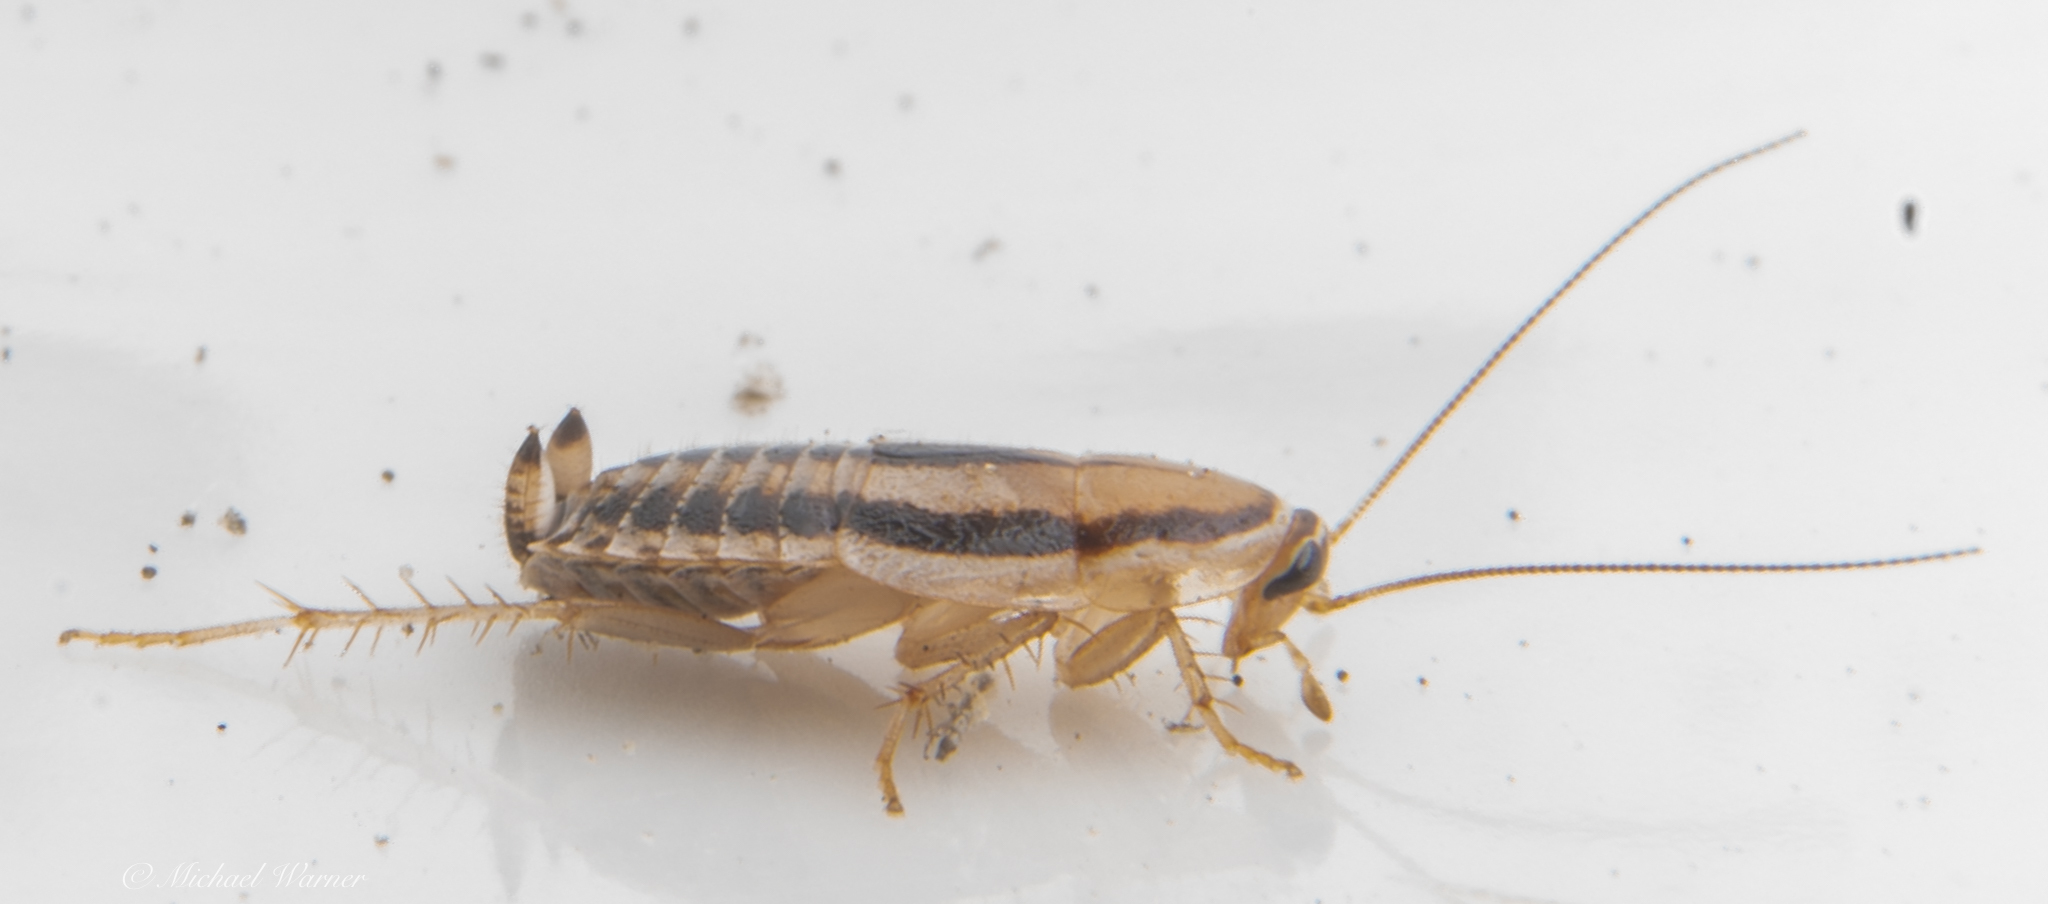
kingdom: Animalia
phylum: Arthropoda
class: Insecta
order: Blattodea
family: Ectobiidae
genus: Luridiblatta
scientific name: Luridiblatta trivittata
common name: Three-lined cockroach
